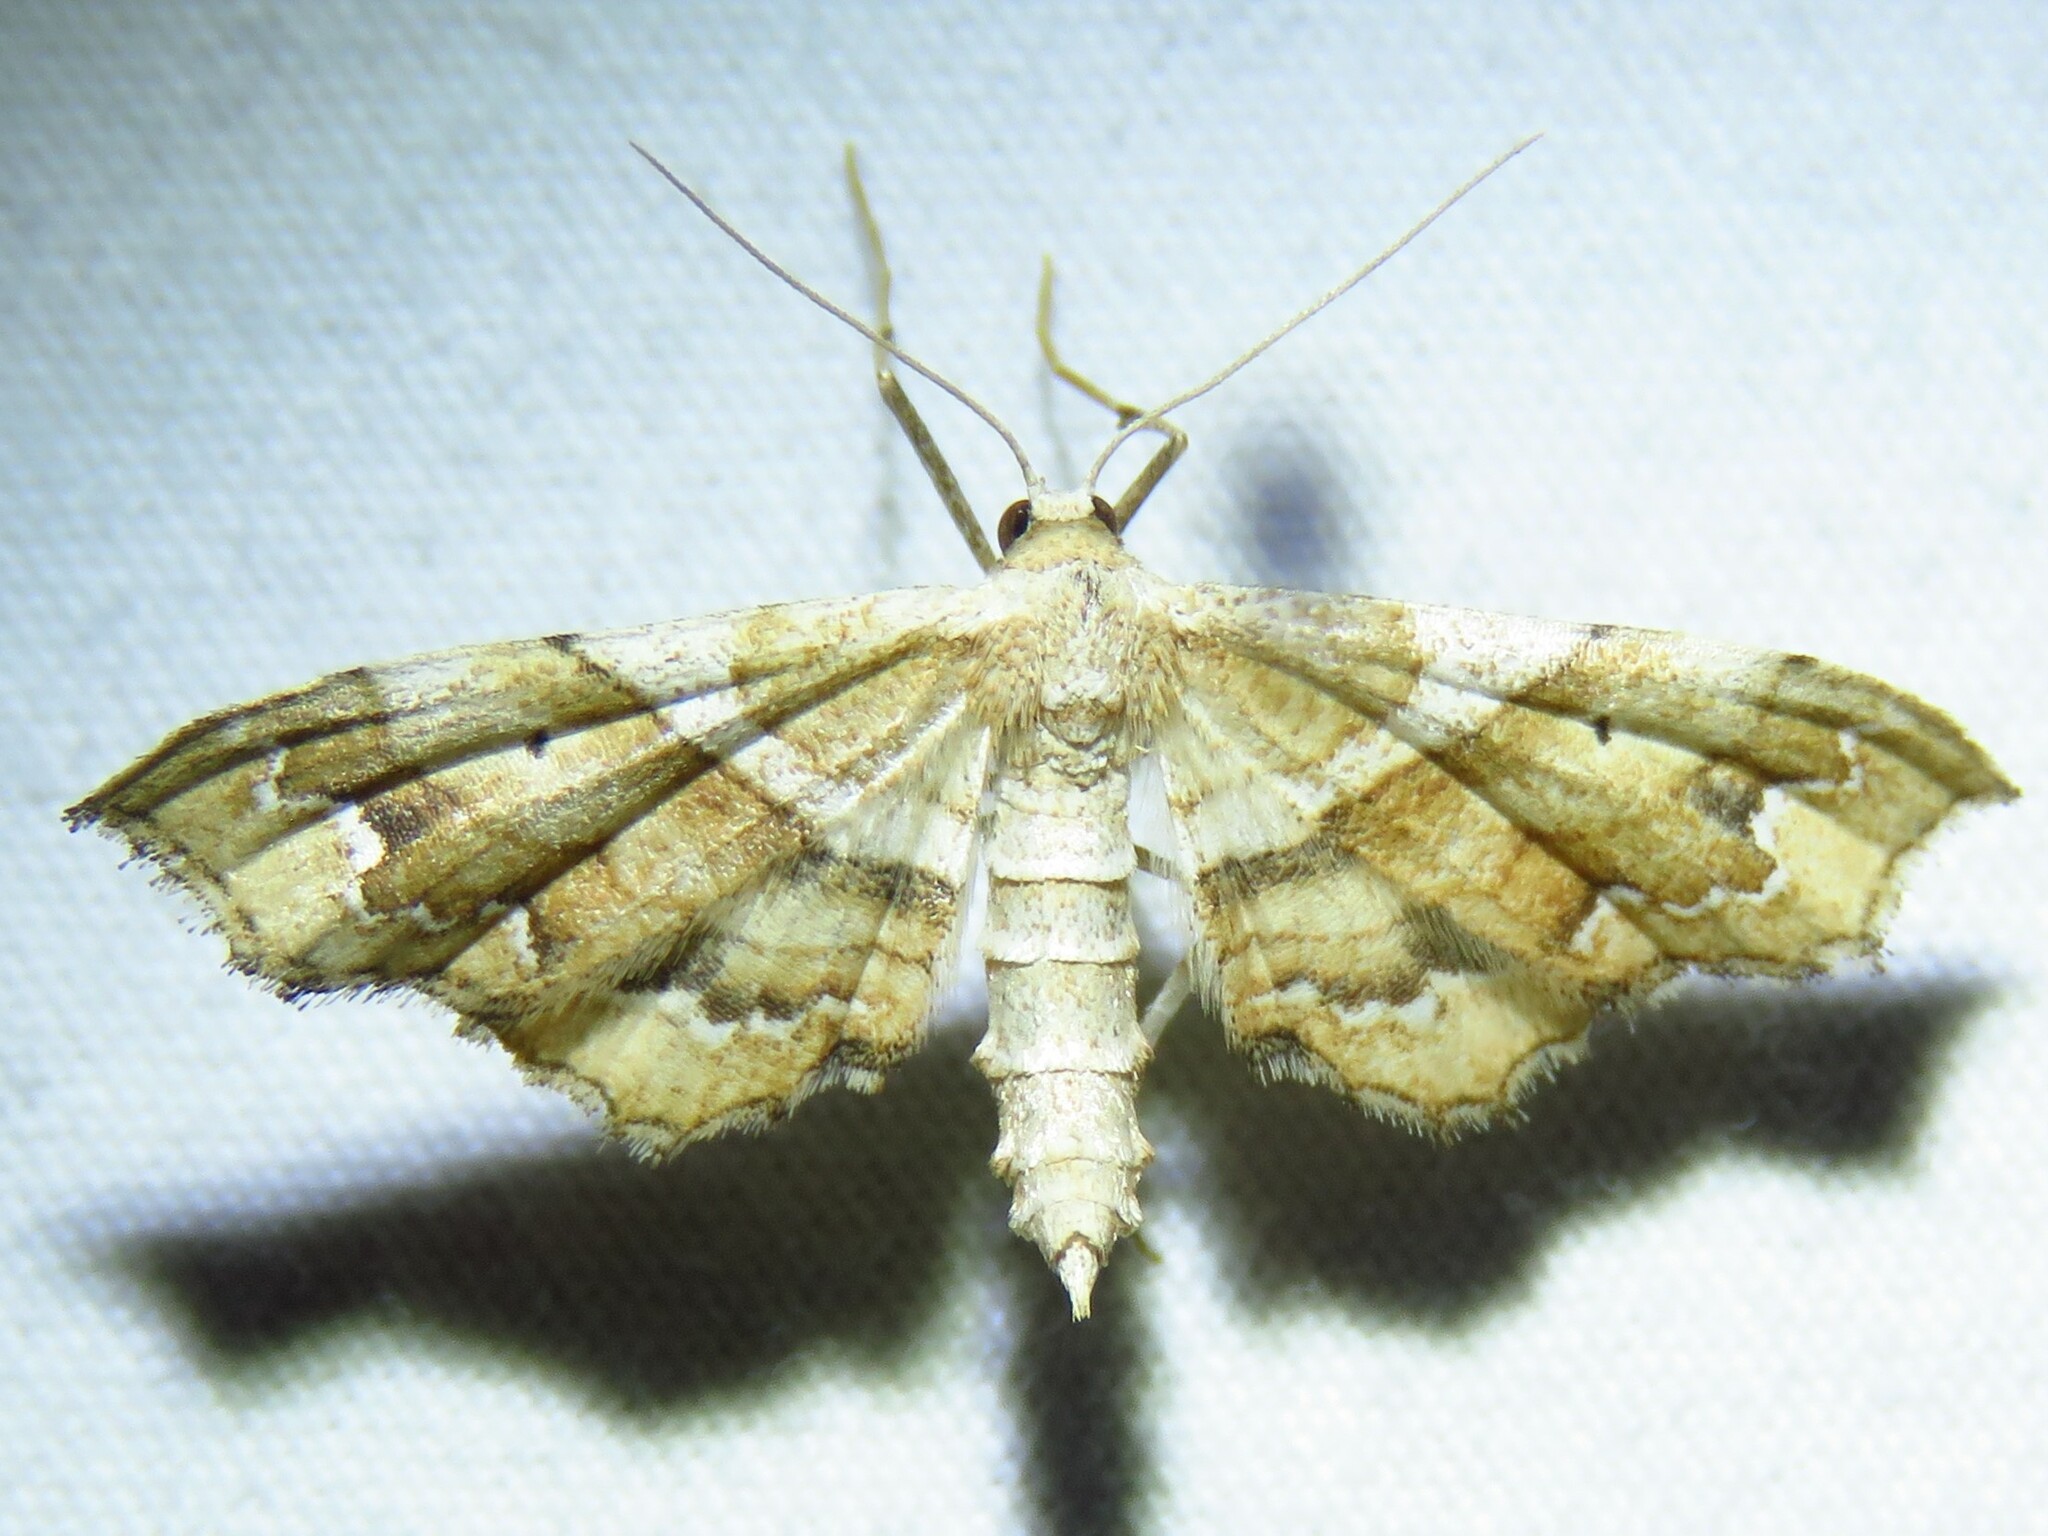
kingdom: Animalia
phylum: Arthropoda
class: Insecta
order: Lepidoptera
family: Geometridae
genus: Odontoptila
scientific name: Odontoptila obrimo
